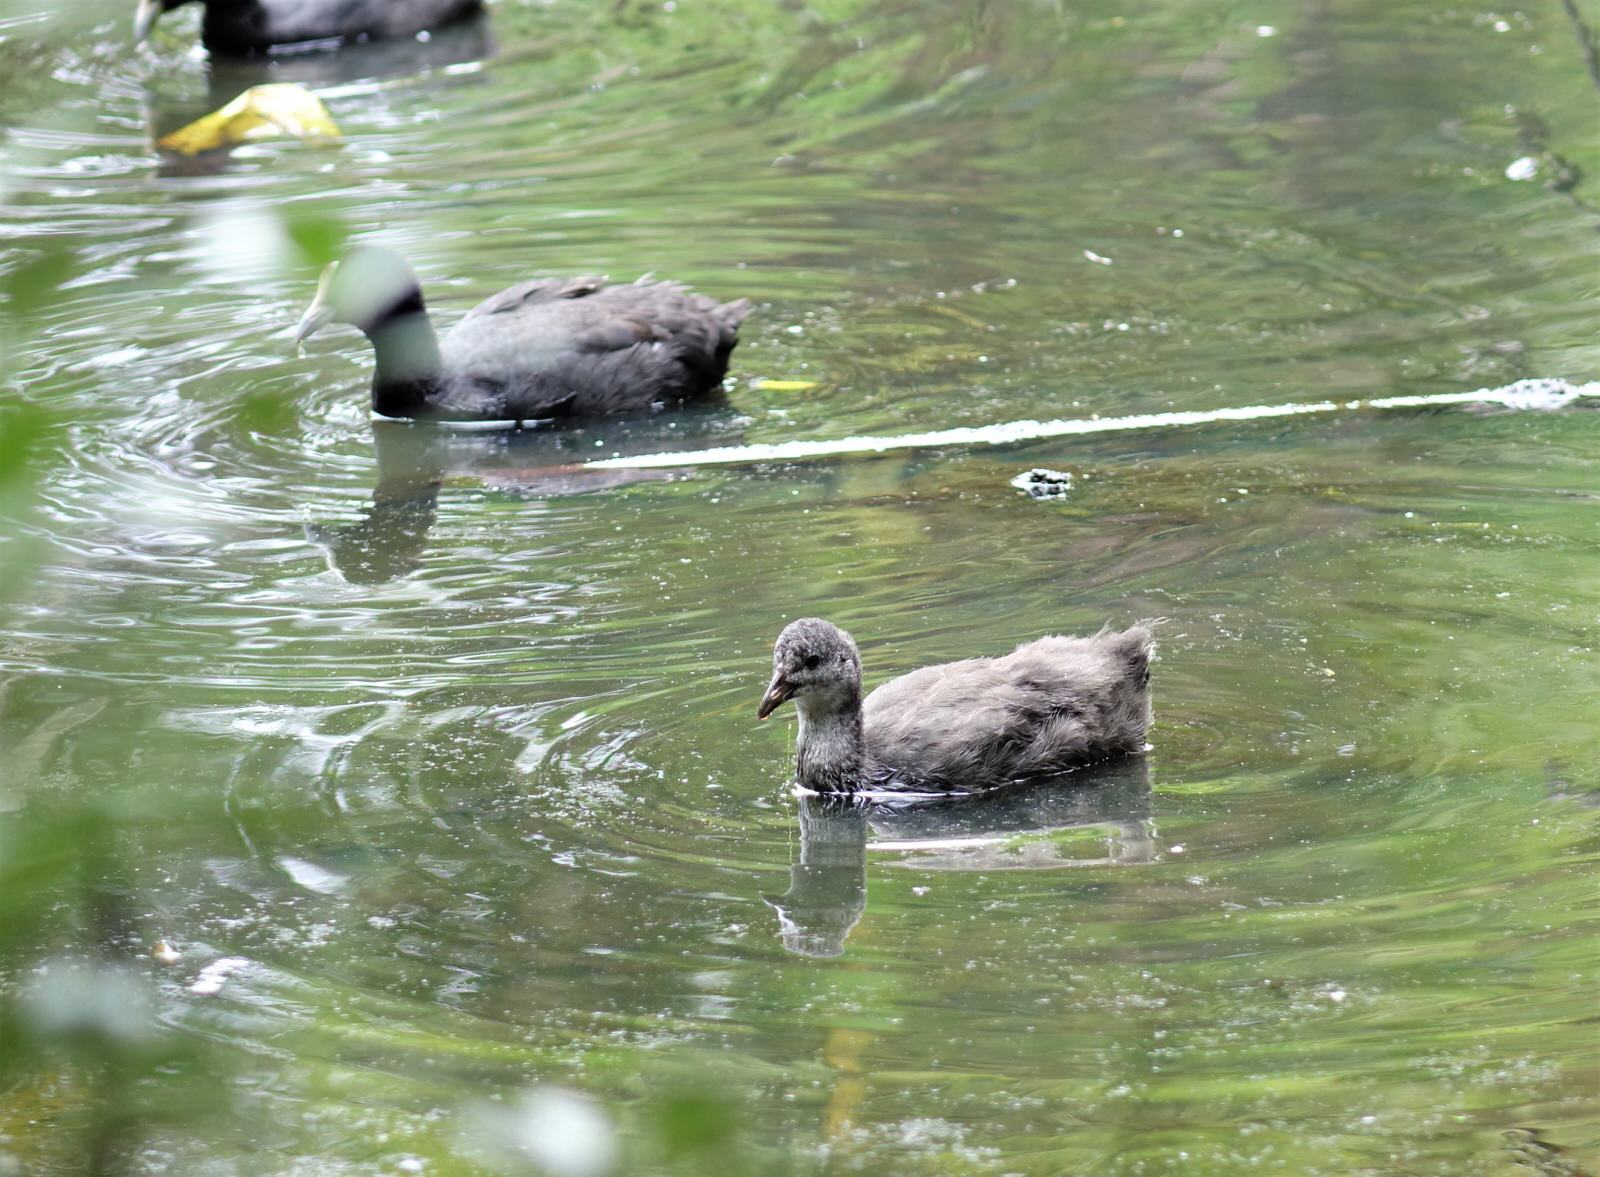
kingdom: Animalia
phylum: Chordata
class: Aves
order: Gruiformes
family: Rallidae
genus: Fulica
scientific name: Fulica atra
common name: Eurasian coot
